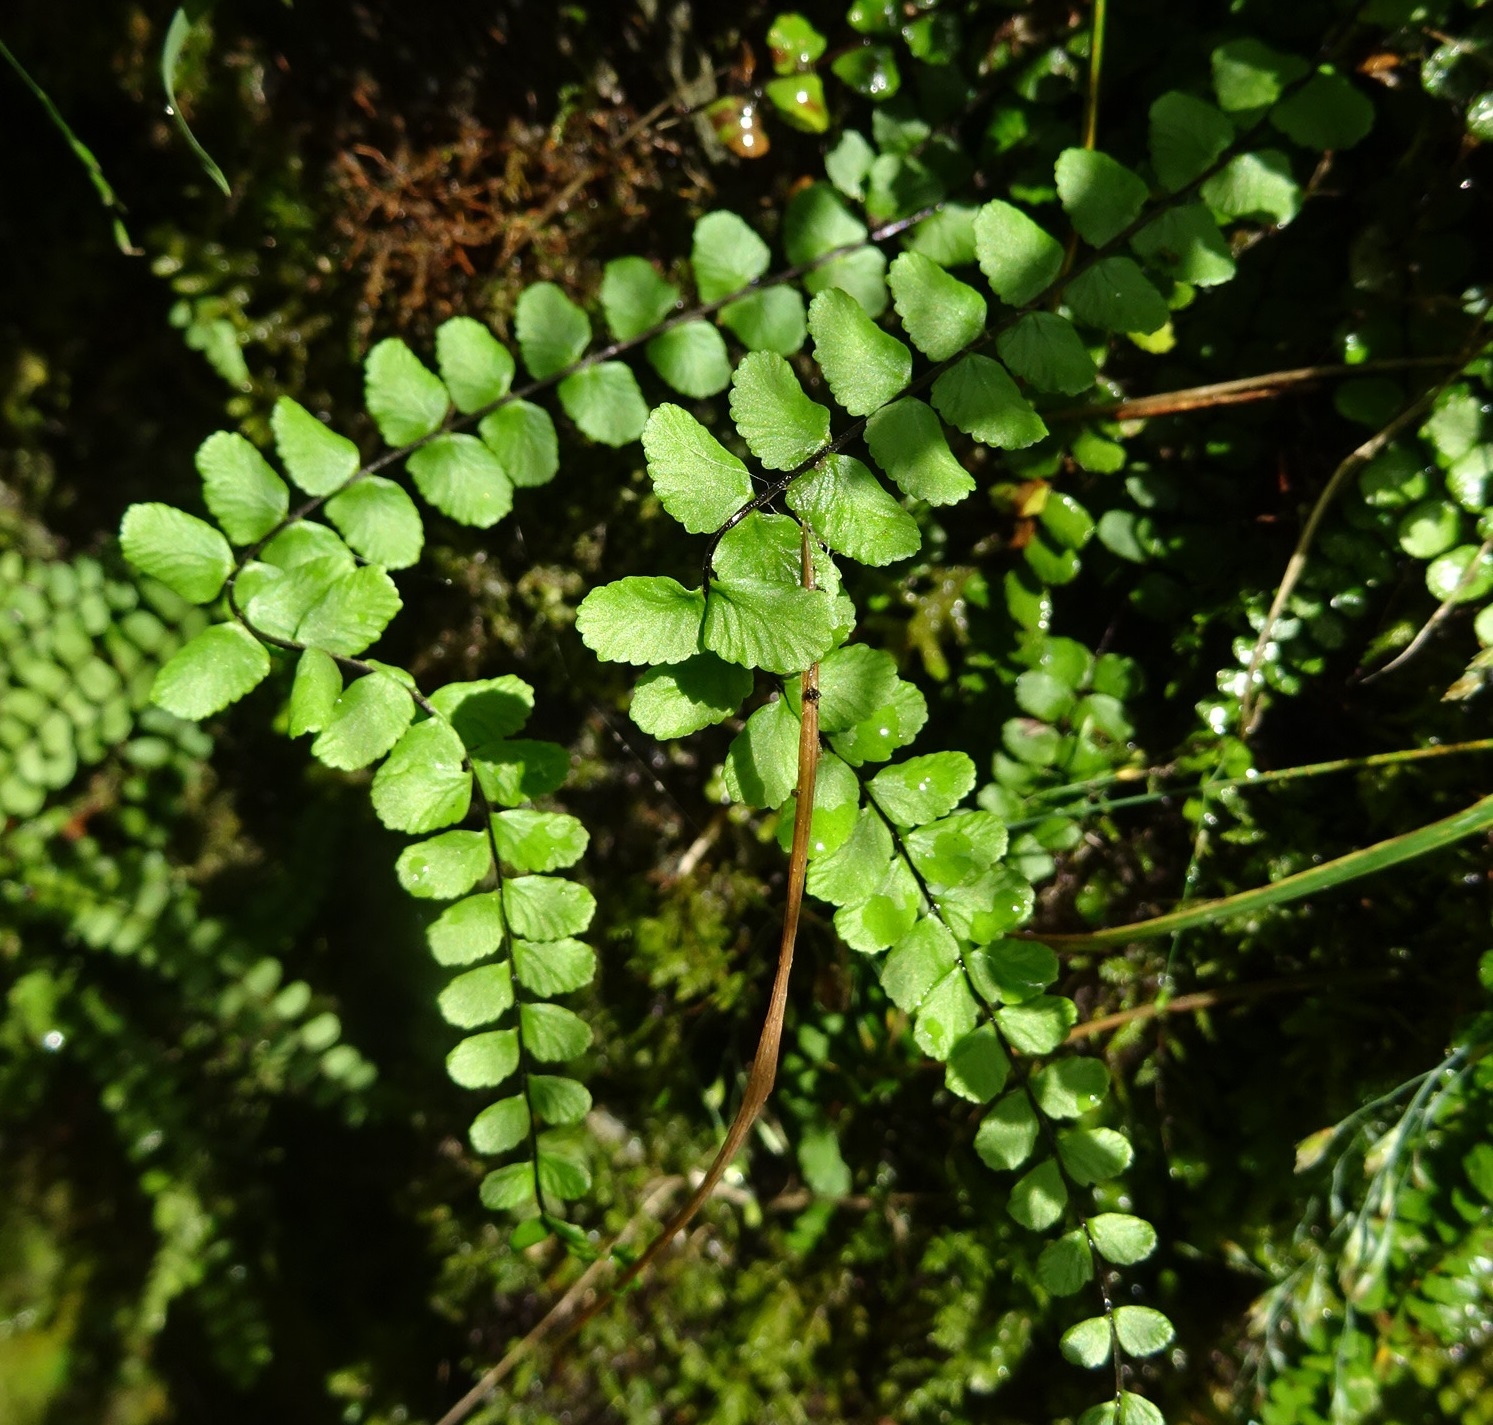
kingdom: Plantae
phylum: Tracheophyta
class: Polypodiopsida
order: Polypodiales
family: Aspleniaceae
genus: Asplenium
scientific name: Asplenium trichomanes
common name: Maidenhair spleenwort
